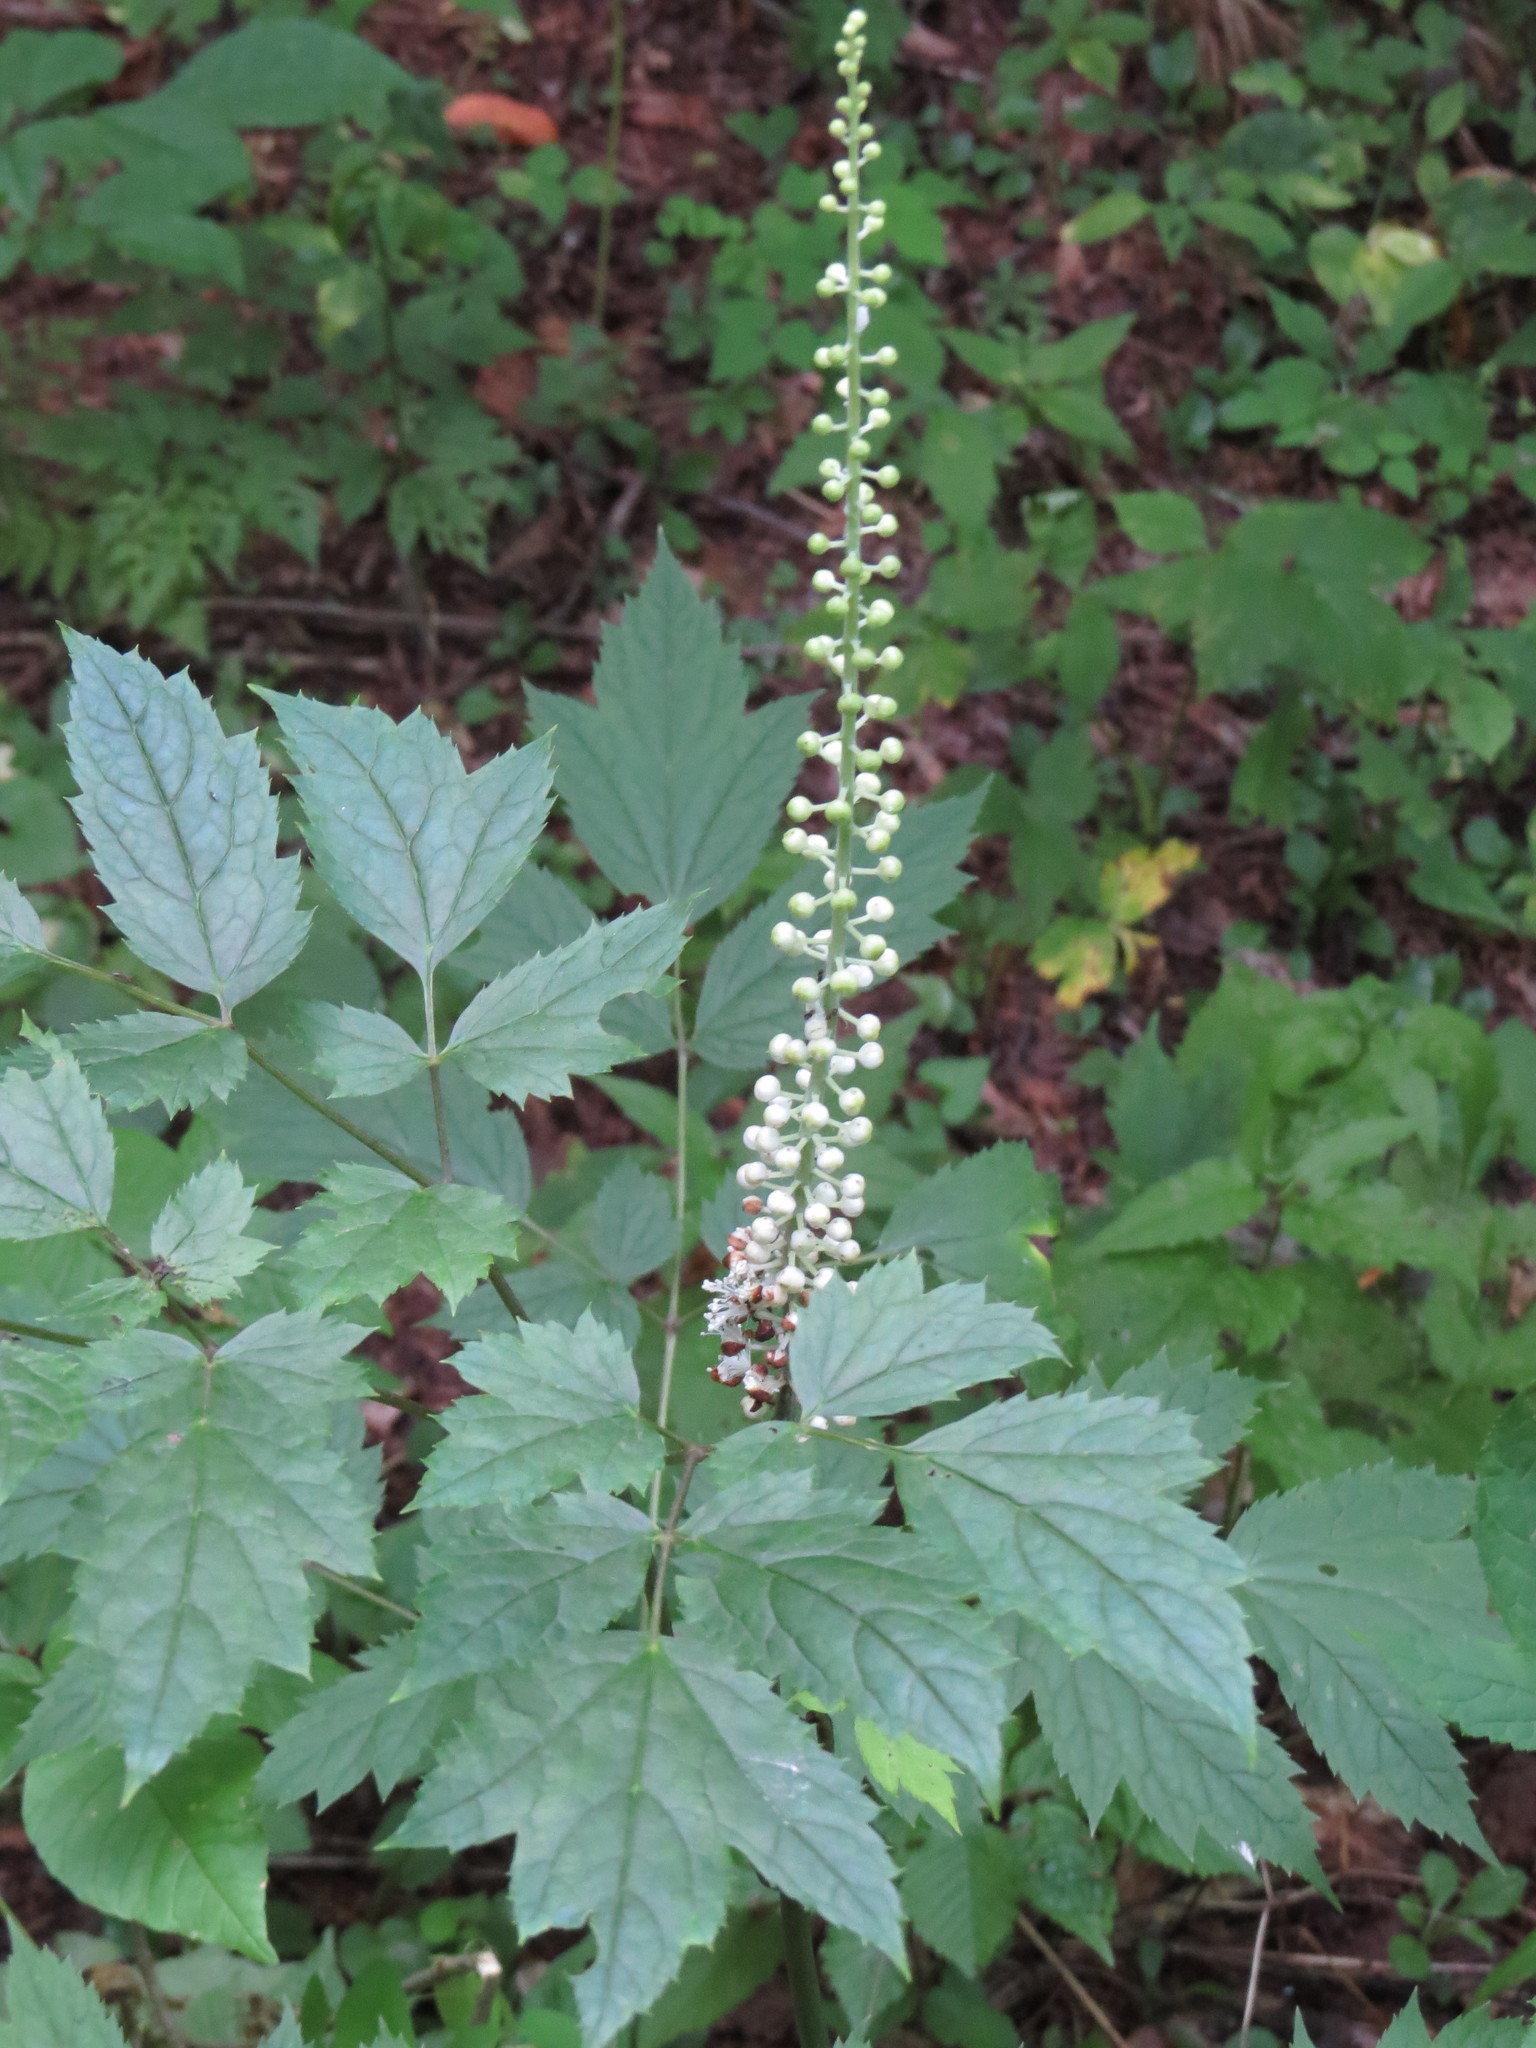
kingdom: Plantae
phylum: Tracheophyta
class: Magnoliopsida
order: Ranunculales
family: Ranunculaceae
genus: Actaea
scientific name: Actaea racemosa
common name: Black cohosh
